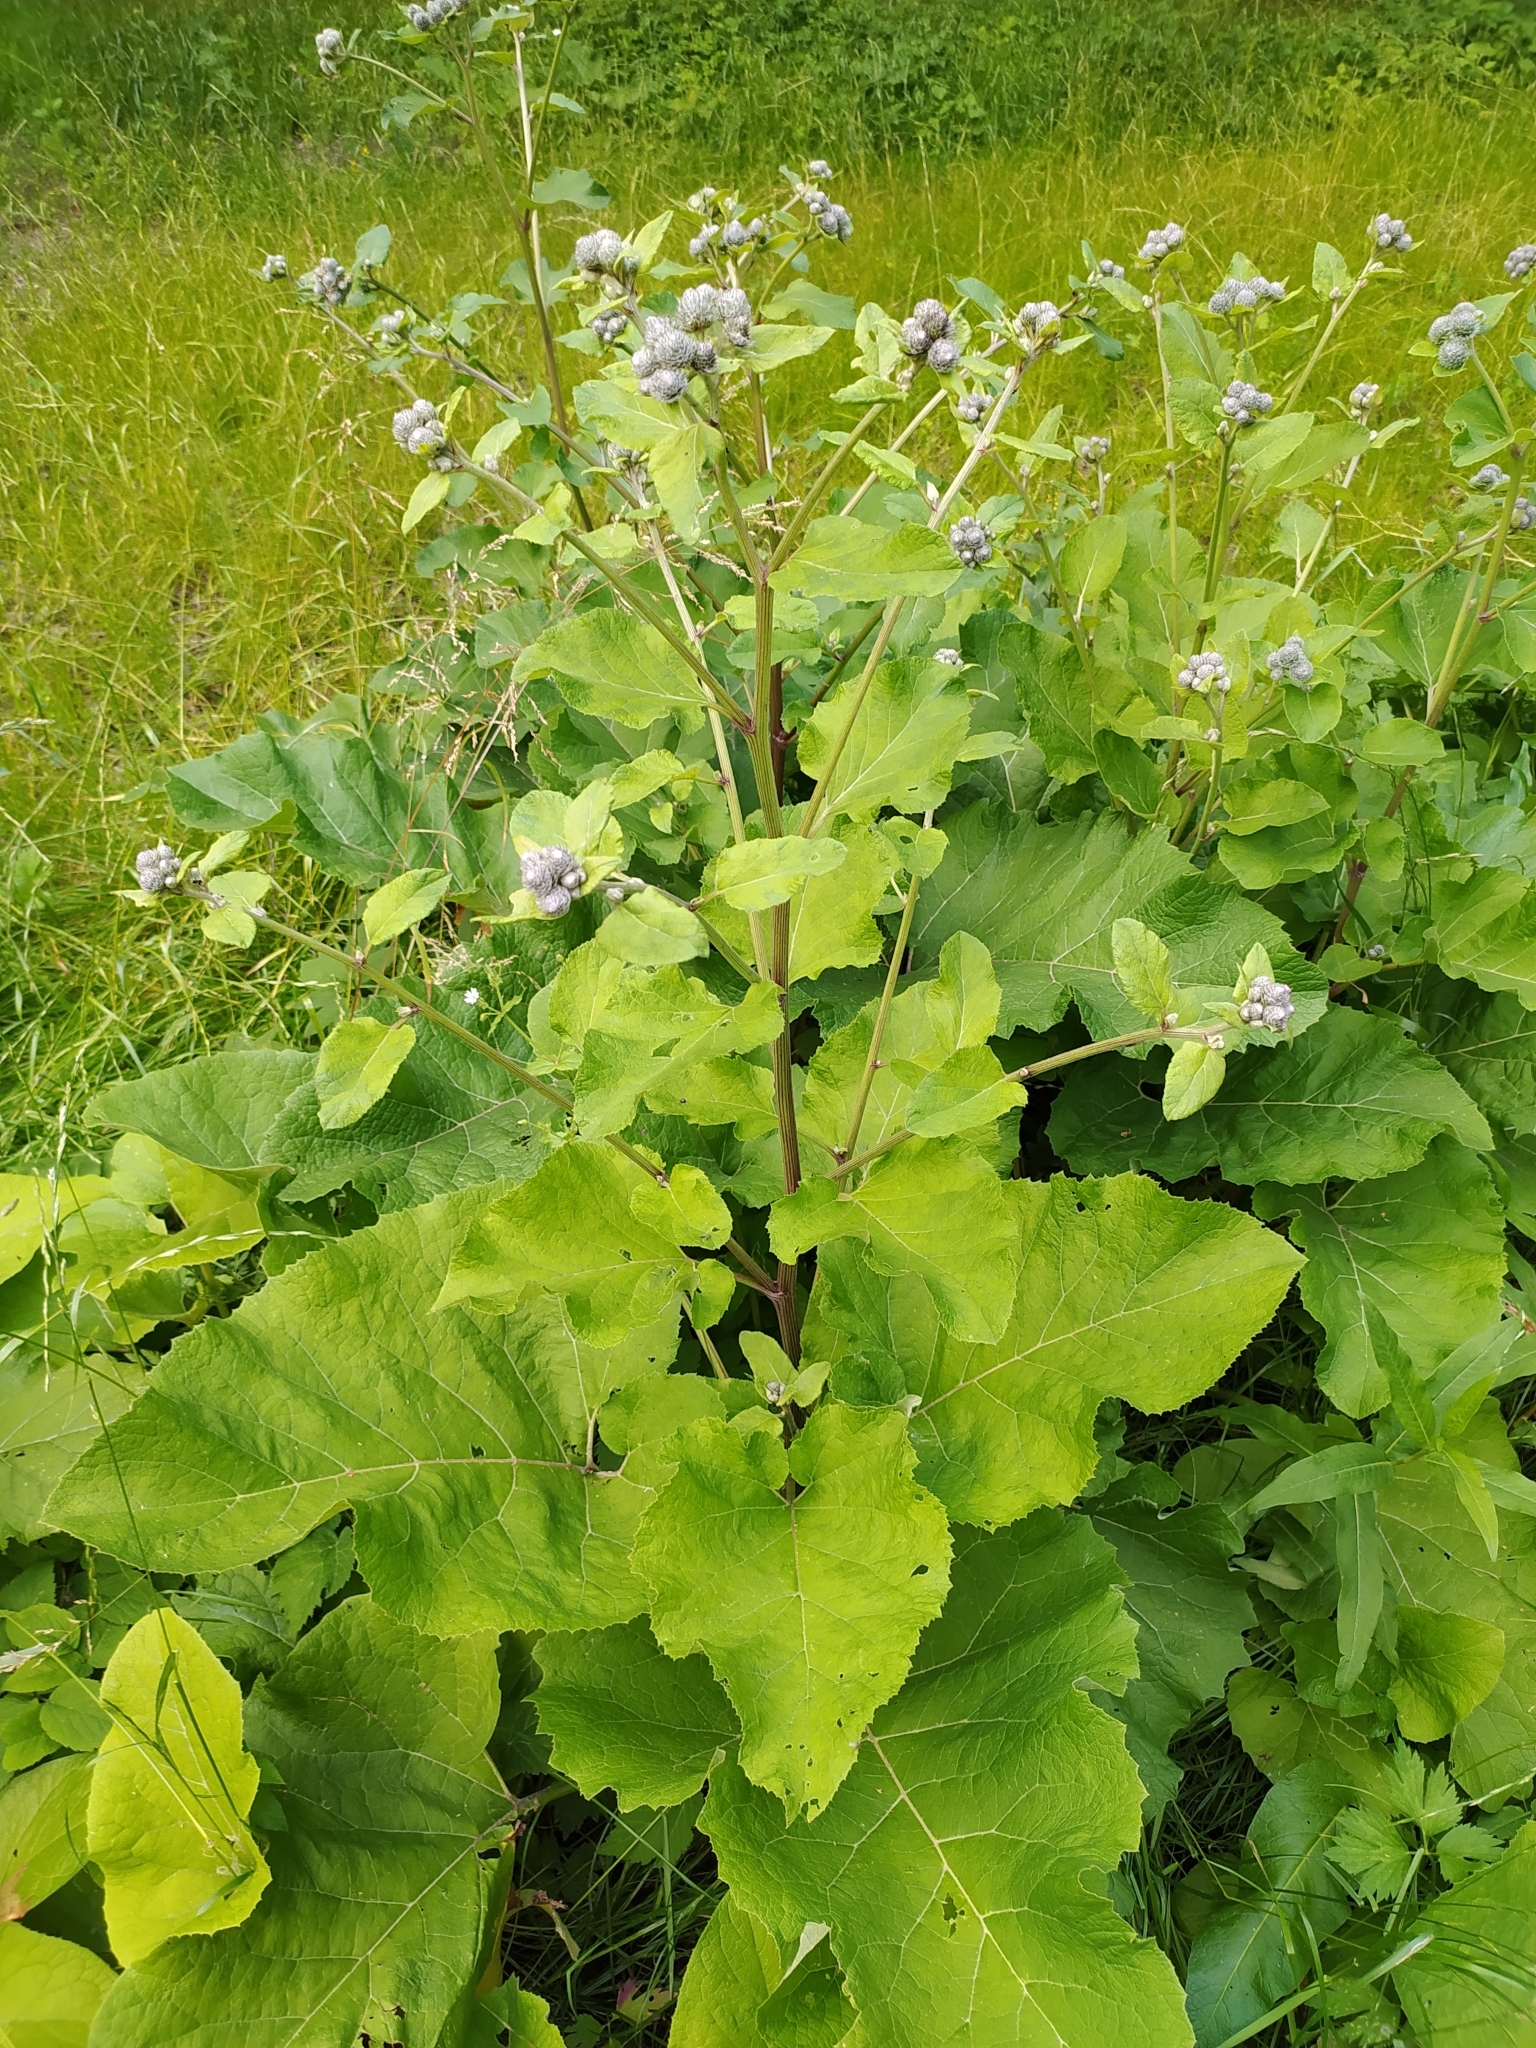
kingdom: Plantae
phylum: Tracheophyta
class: Magnoliopsida
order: Asterales
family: Asteraceae
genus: Arctium
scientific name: Arctium tomentosum
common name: Woolly burdock
